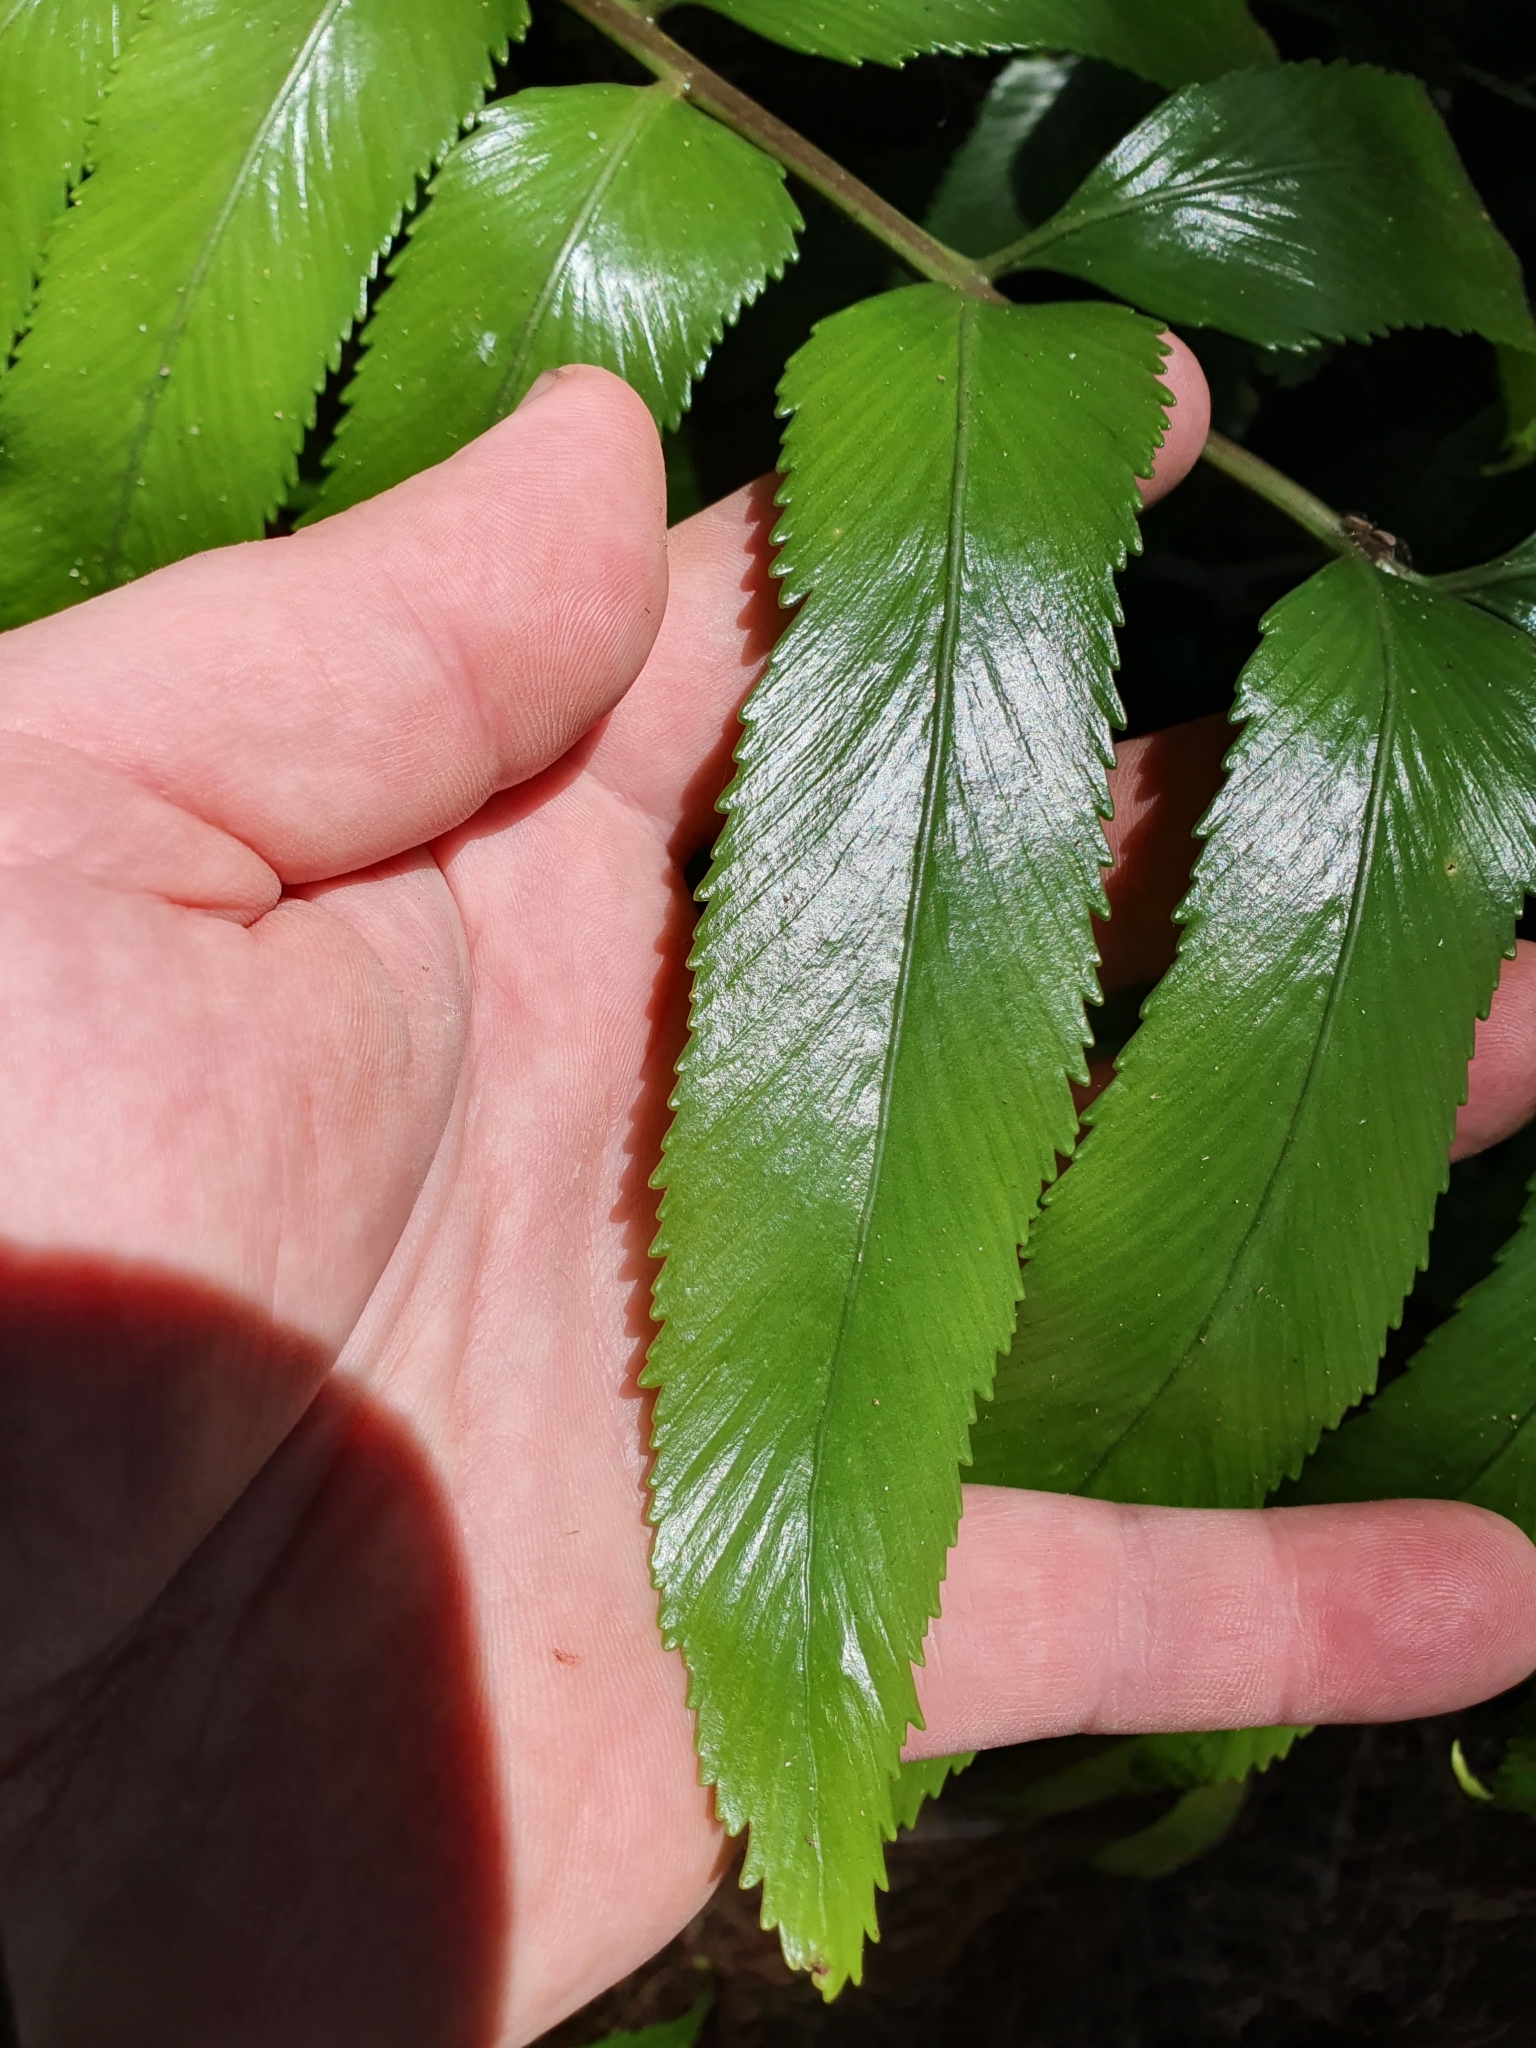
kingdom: Plantae
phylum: Tracheophyta
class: Polypodiopsida
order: Polypodiales
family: Aspleniaceae
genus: Asplenium
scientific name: Asplenium oblongifolium
